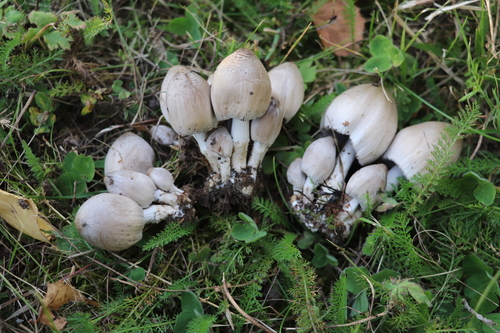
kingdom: Fungi
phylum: Basidiomycota
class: Agaricomycetes
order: Agaricales
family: Psathyrellaceae
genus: Coprinopsis
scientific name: Coprinopsis atramentaria
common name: Common ink-cap
